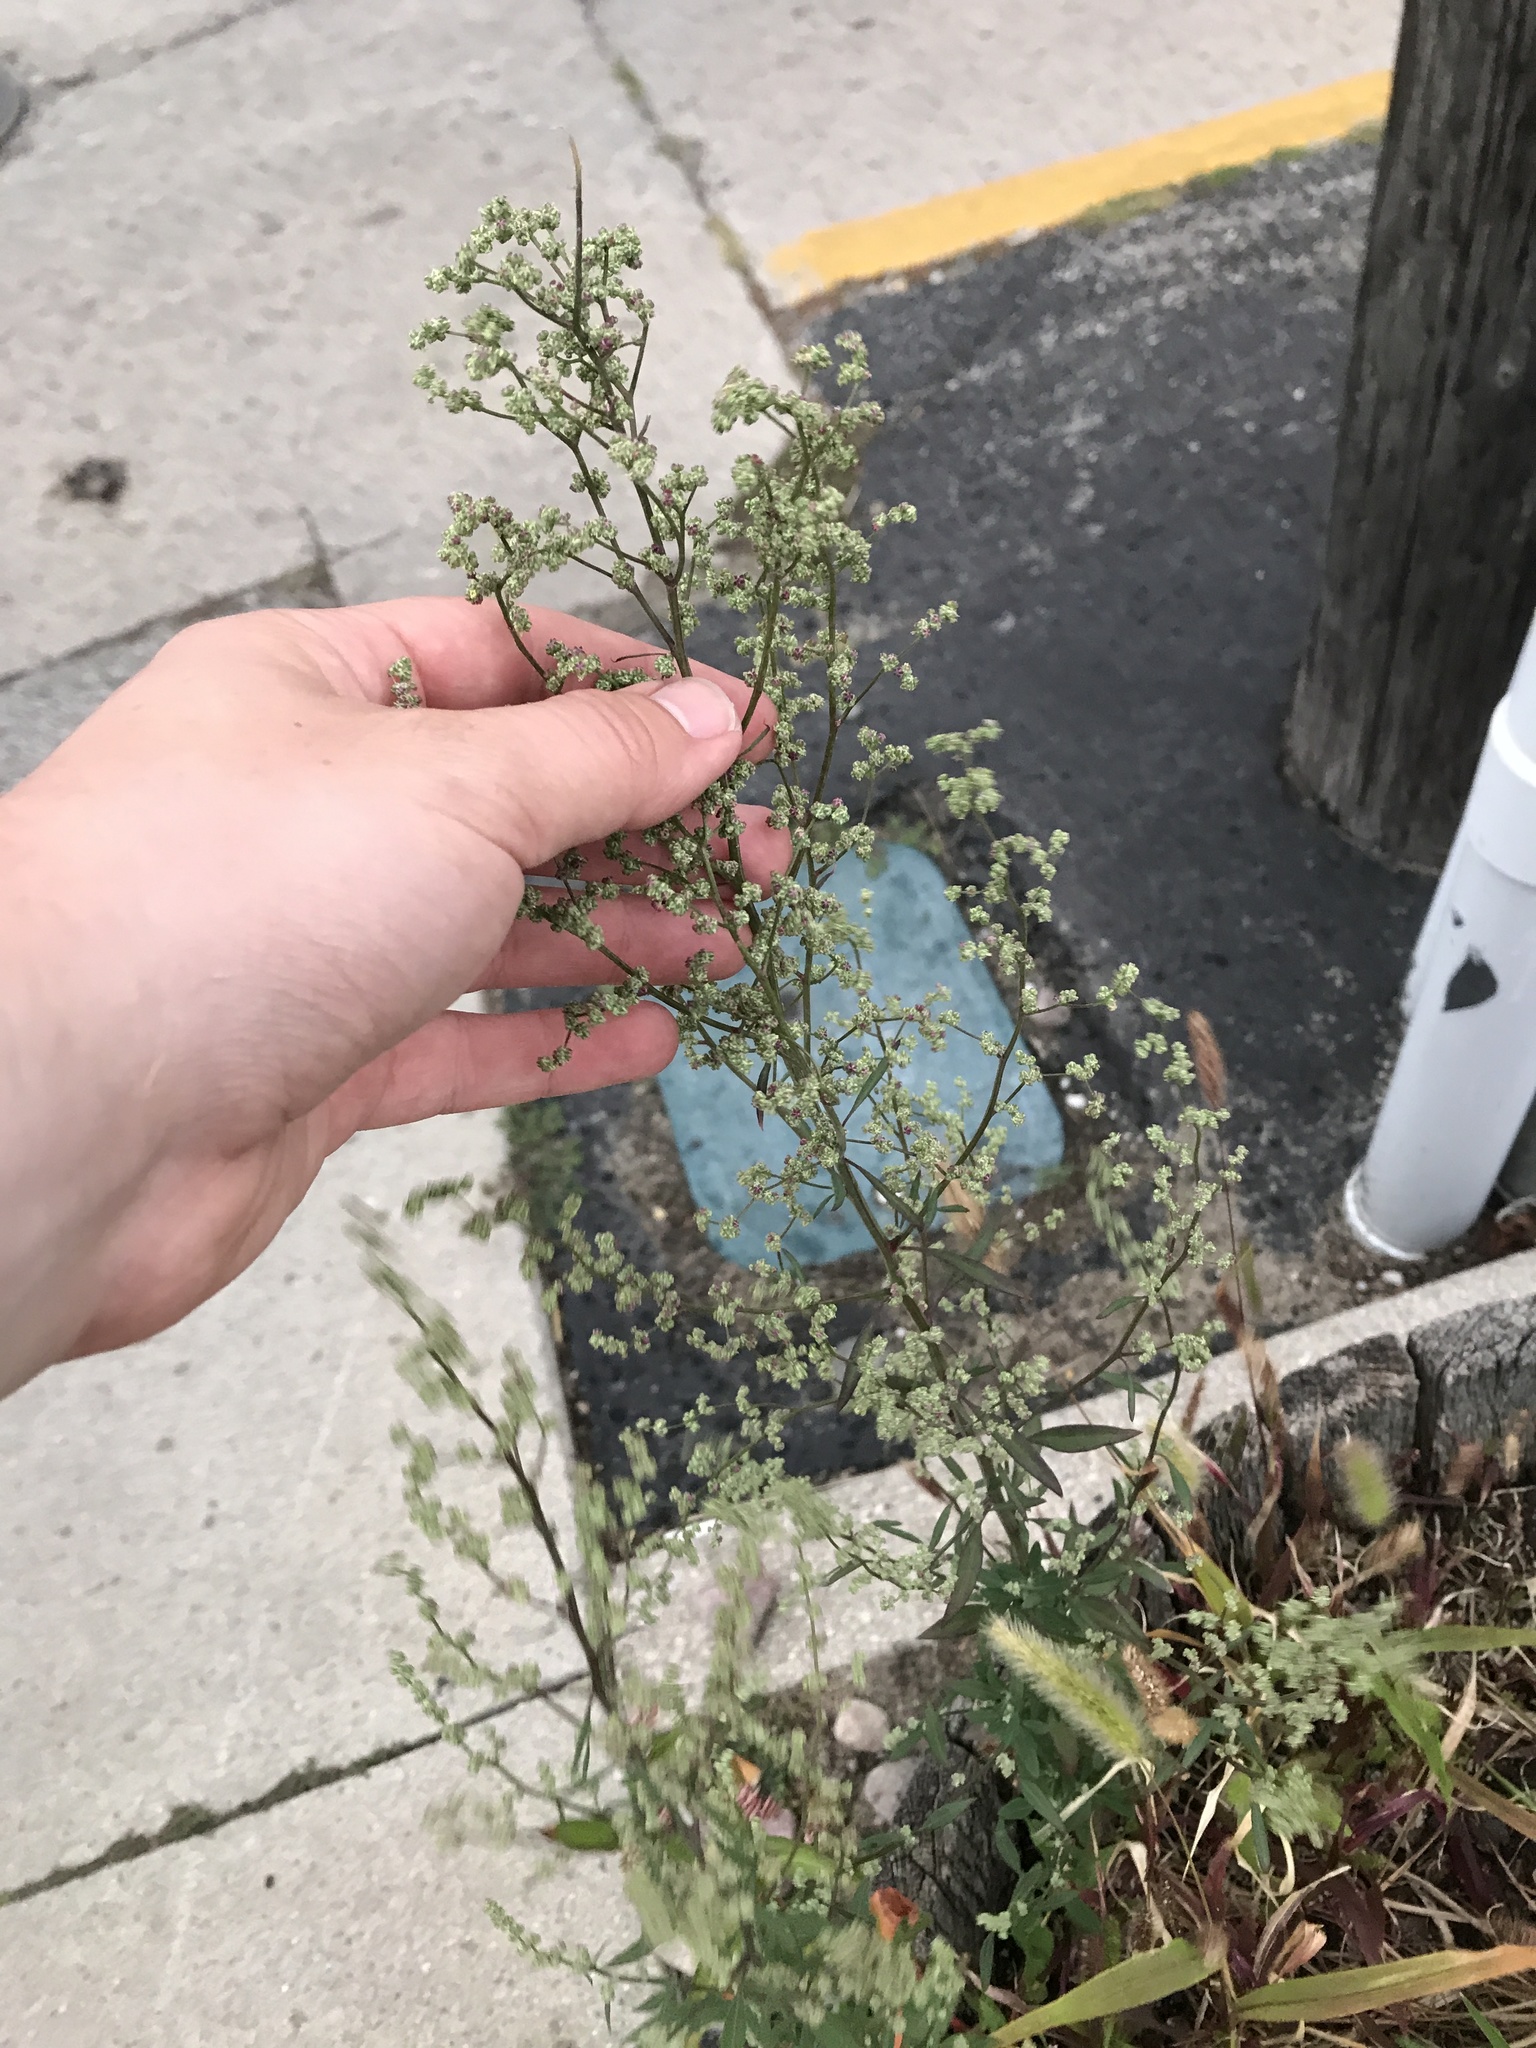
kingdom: Plantae
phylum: Tracheophyta
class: Magnoliopsida
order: Asterales
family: Asteraceae
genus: Erigeron
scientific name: Erigeron canadensis
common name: Canadian fleabane
